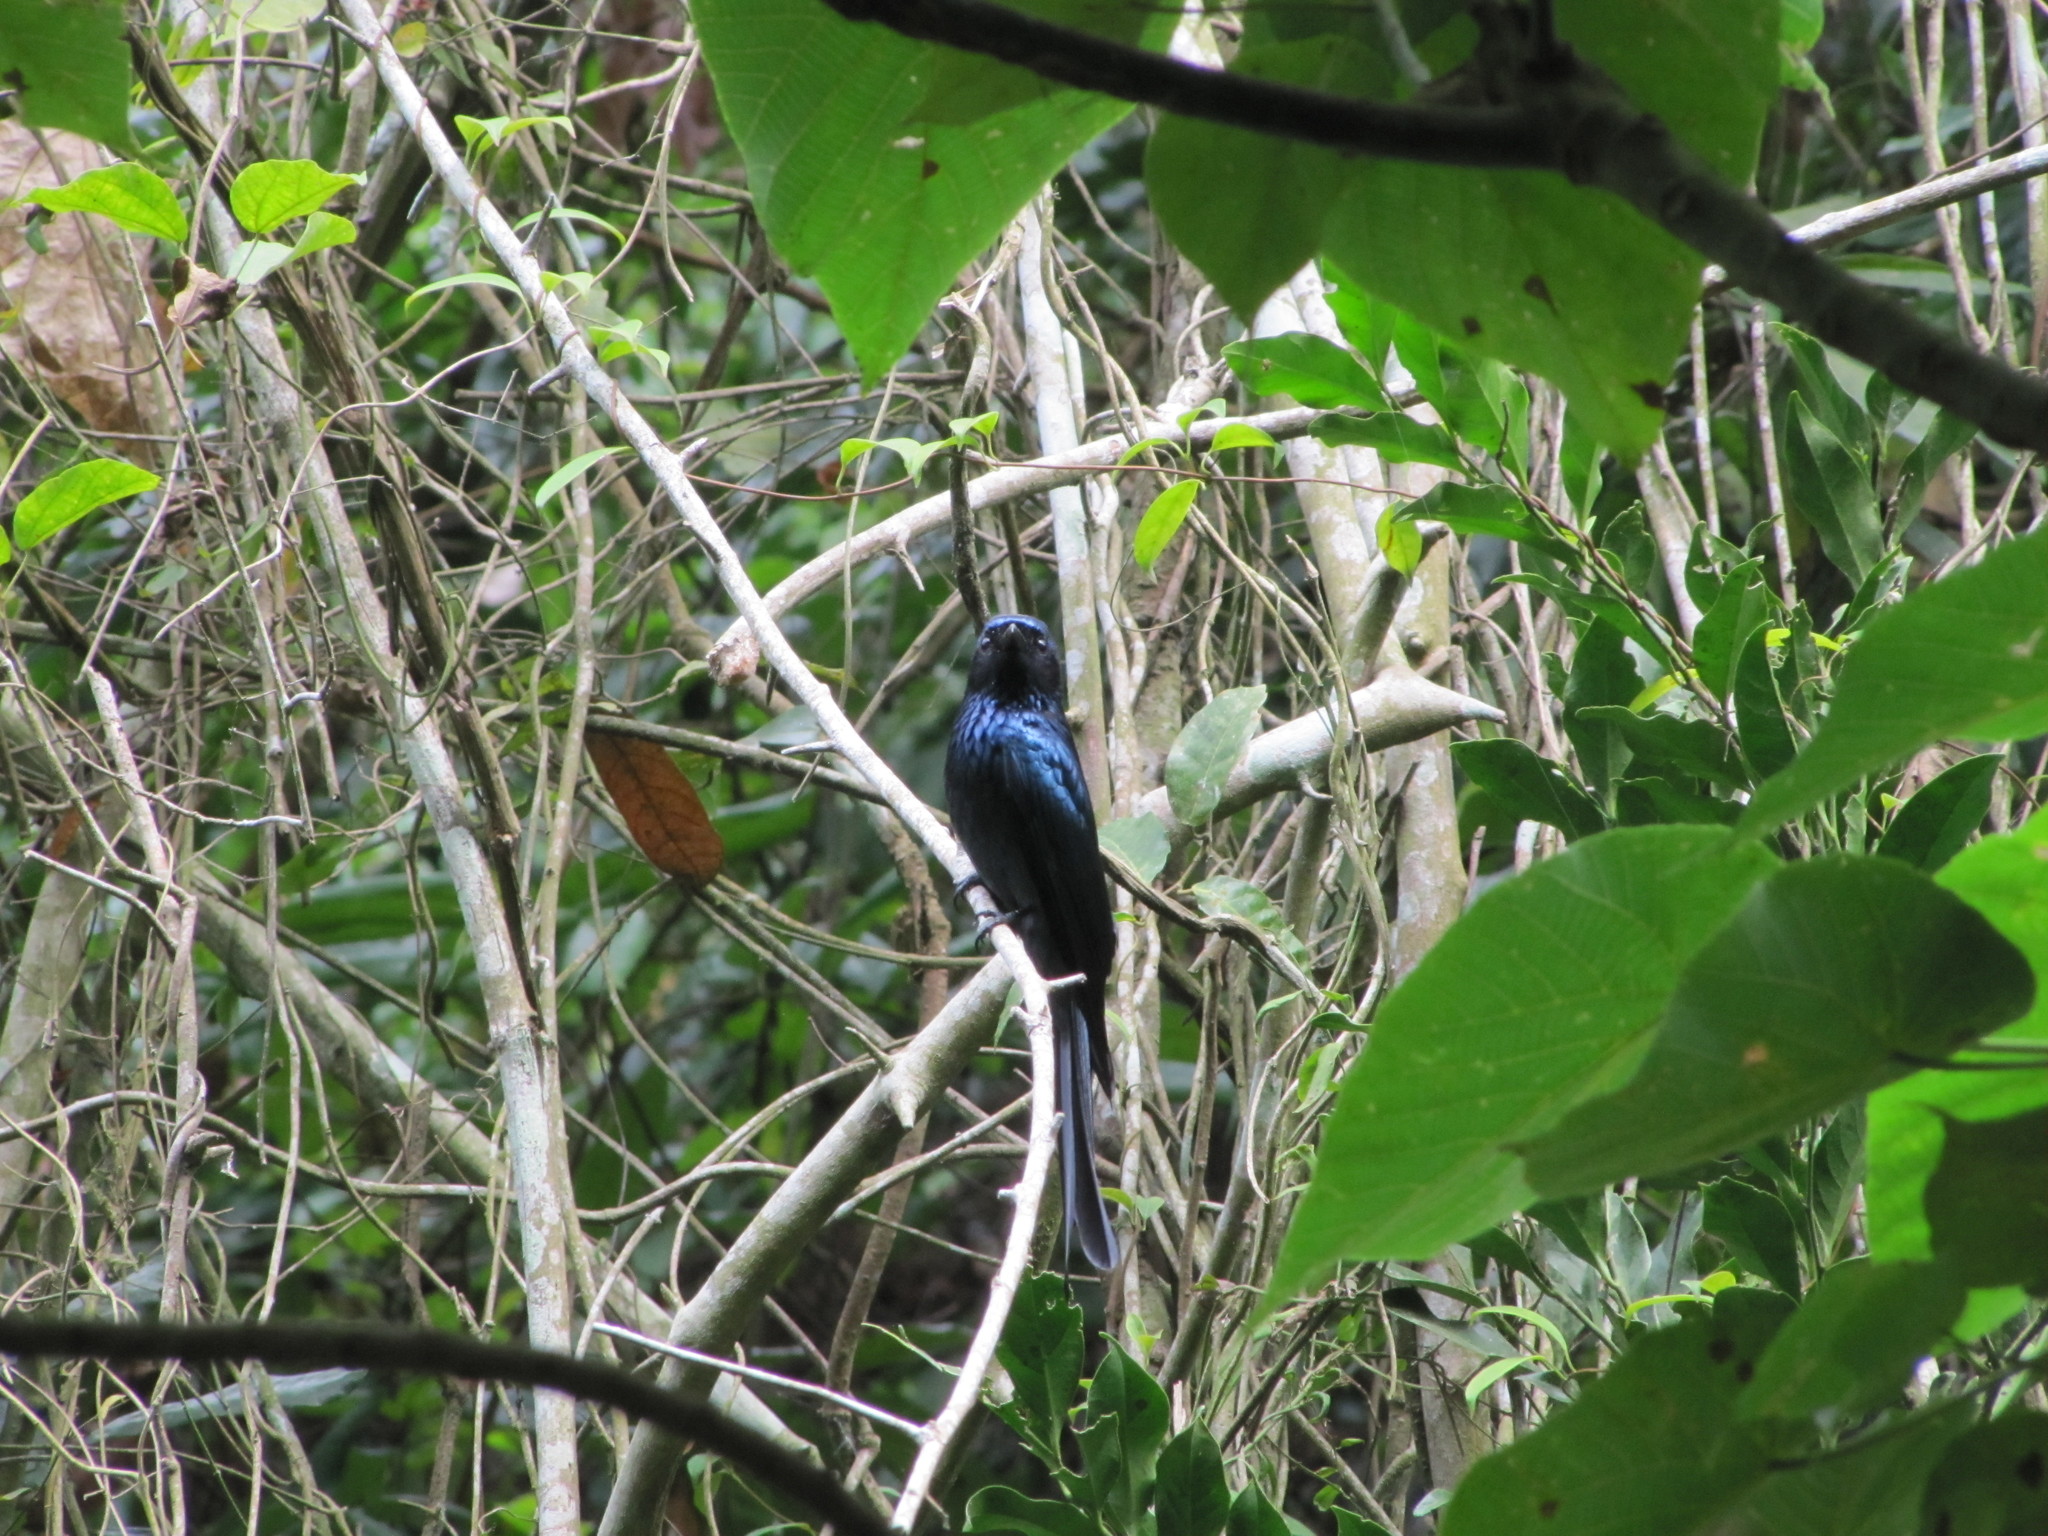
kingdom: Animalia
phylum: Chordata
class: Aves
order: Passeriformes
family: Dicruridae
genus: Dicrurus
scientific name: Dicrurus aeneus
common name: Bronzed drongo
